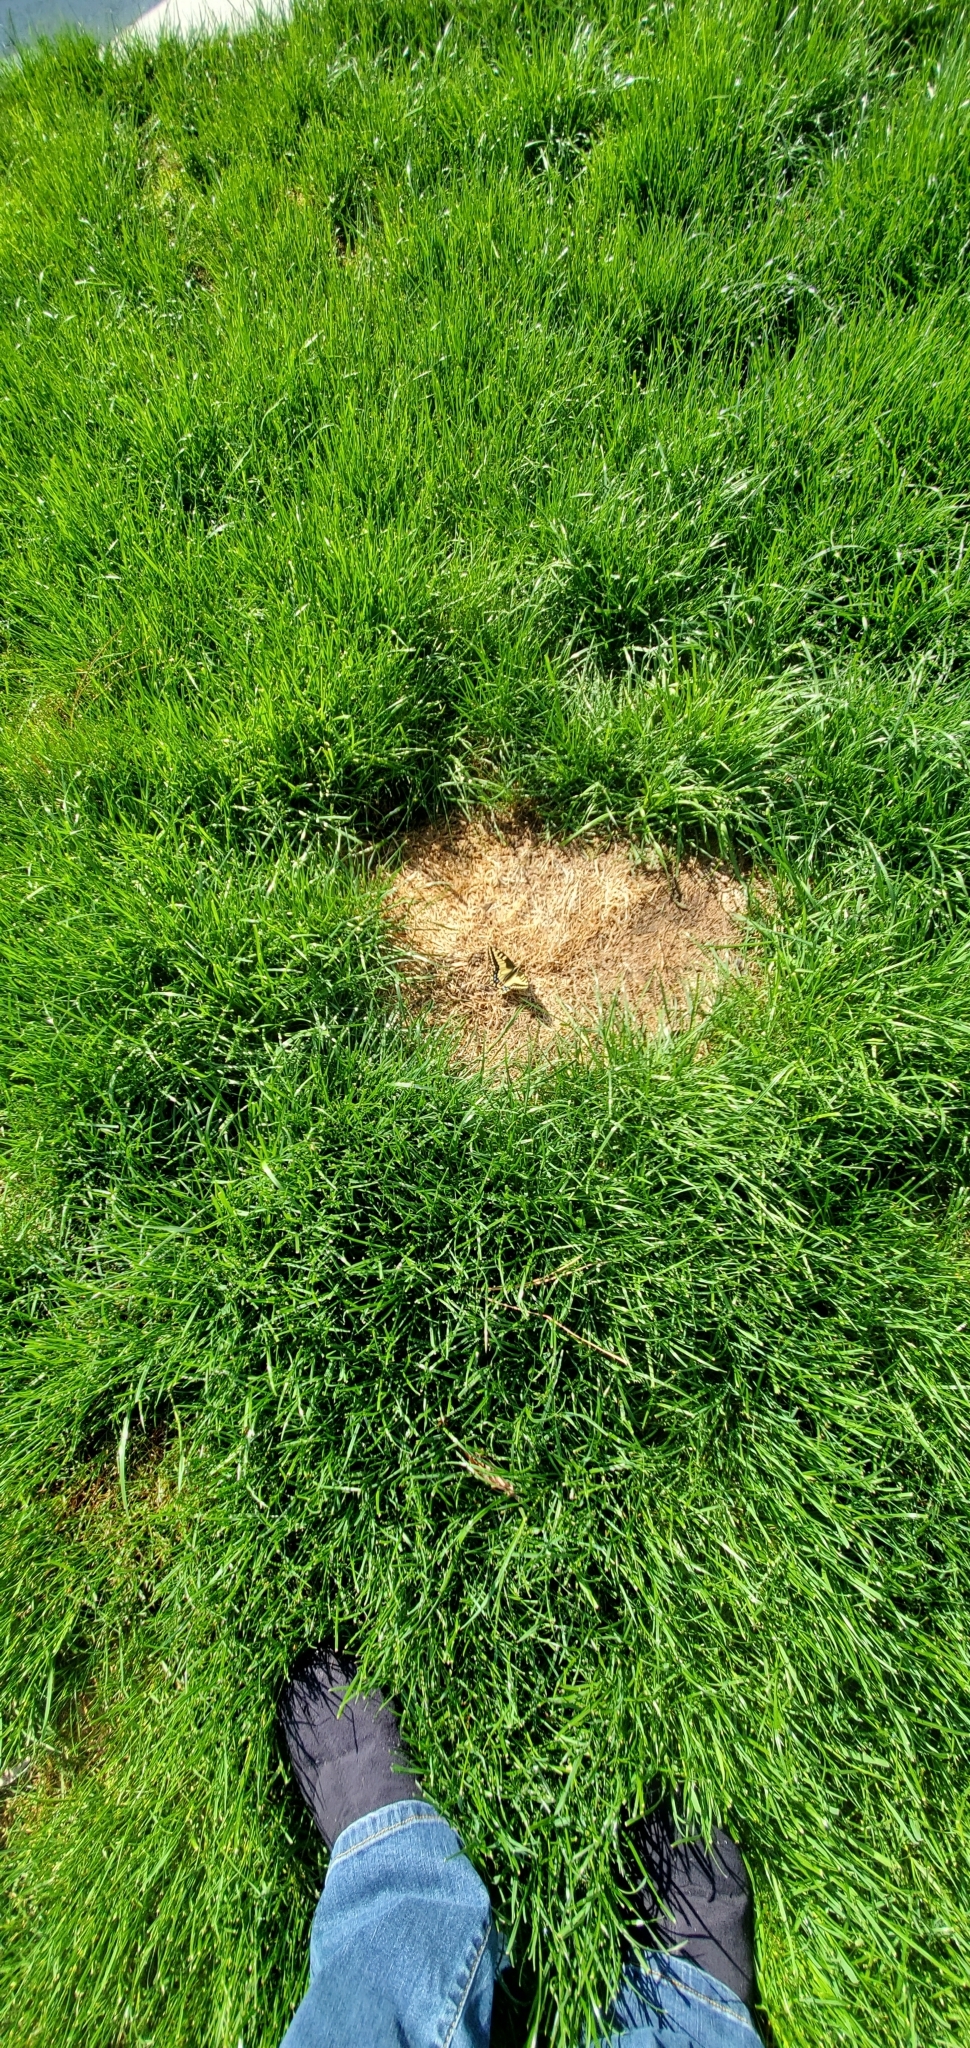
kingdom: Animalia
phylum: Arthropoda
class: Insecta
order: Lepidoptera
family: Papilionidae
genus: Papilio
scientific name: Papilio zelicaon
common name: Anise swallowtail
